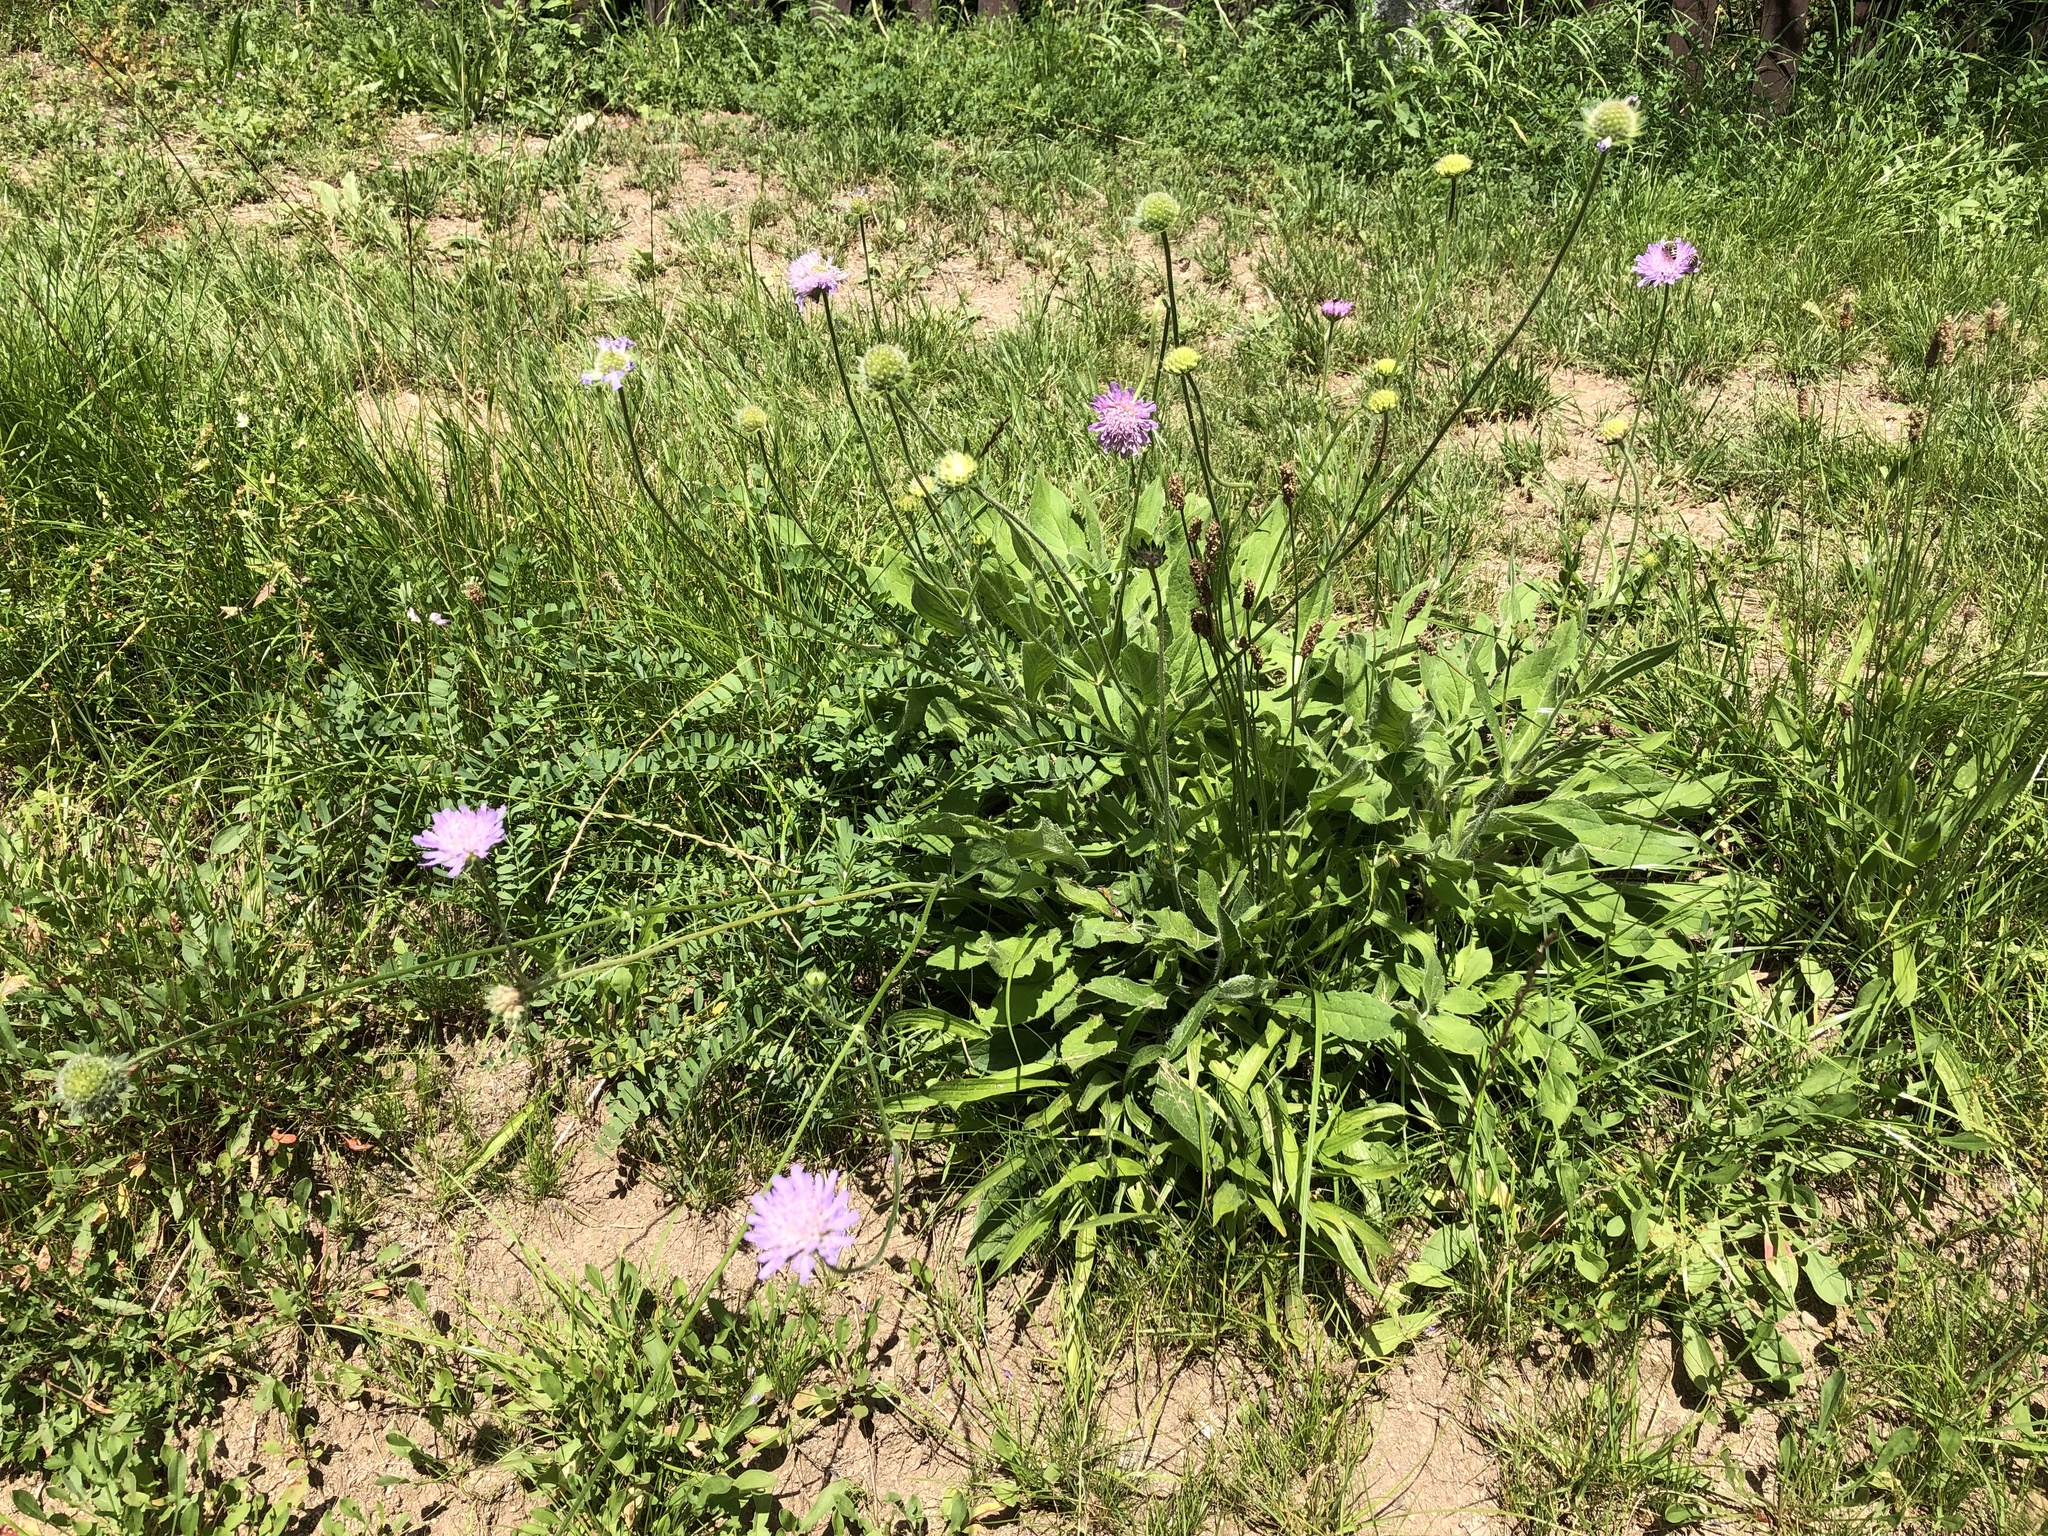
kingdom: Plantae
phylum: Tracheophyta
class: Magnoliopsida
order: Dipsacales
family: Caprifoliaceae
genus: Knautia
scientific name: Knautia arvensis
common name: Field scabiosa
